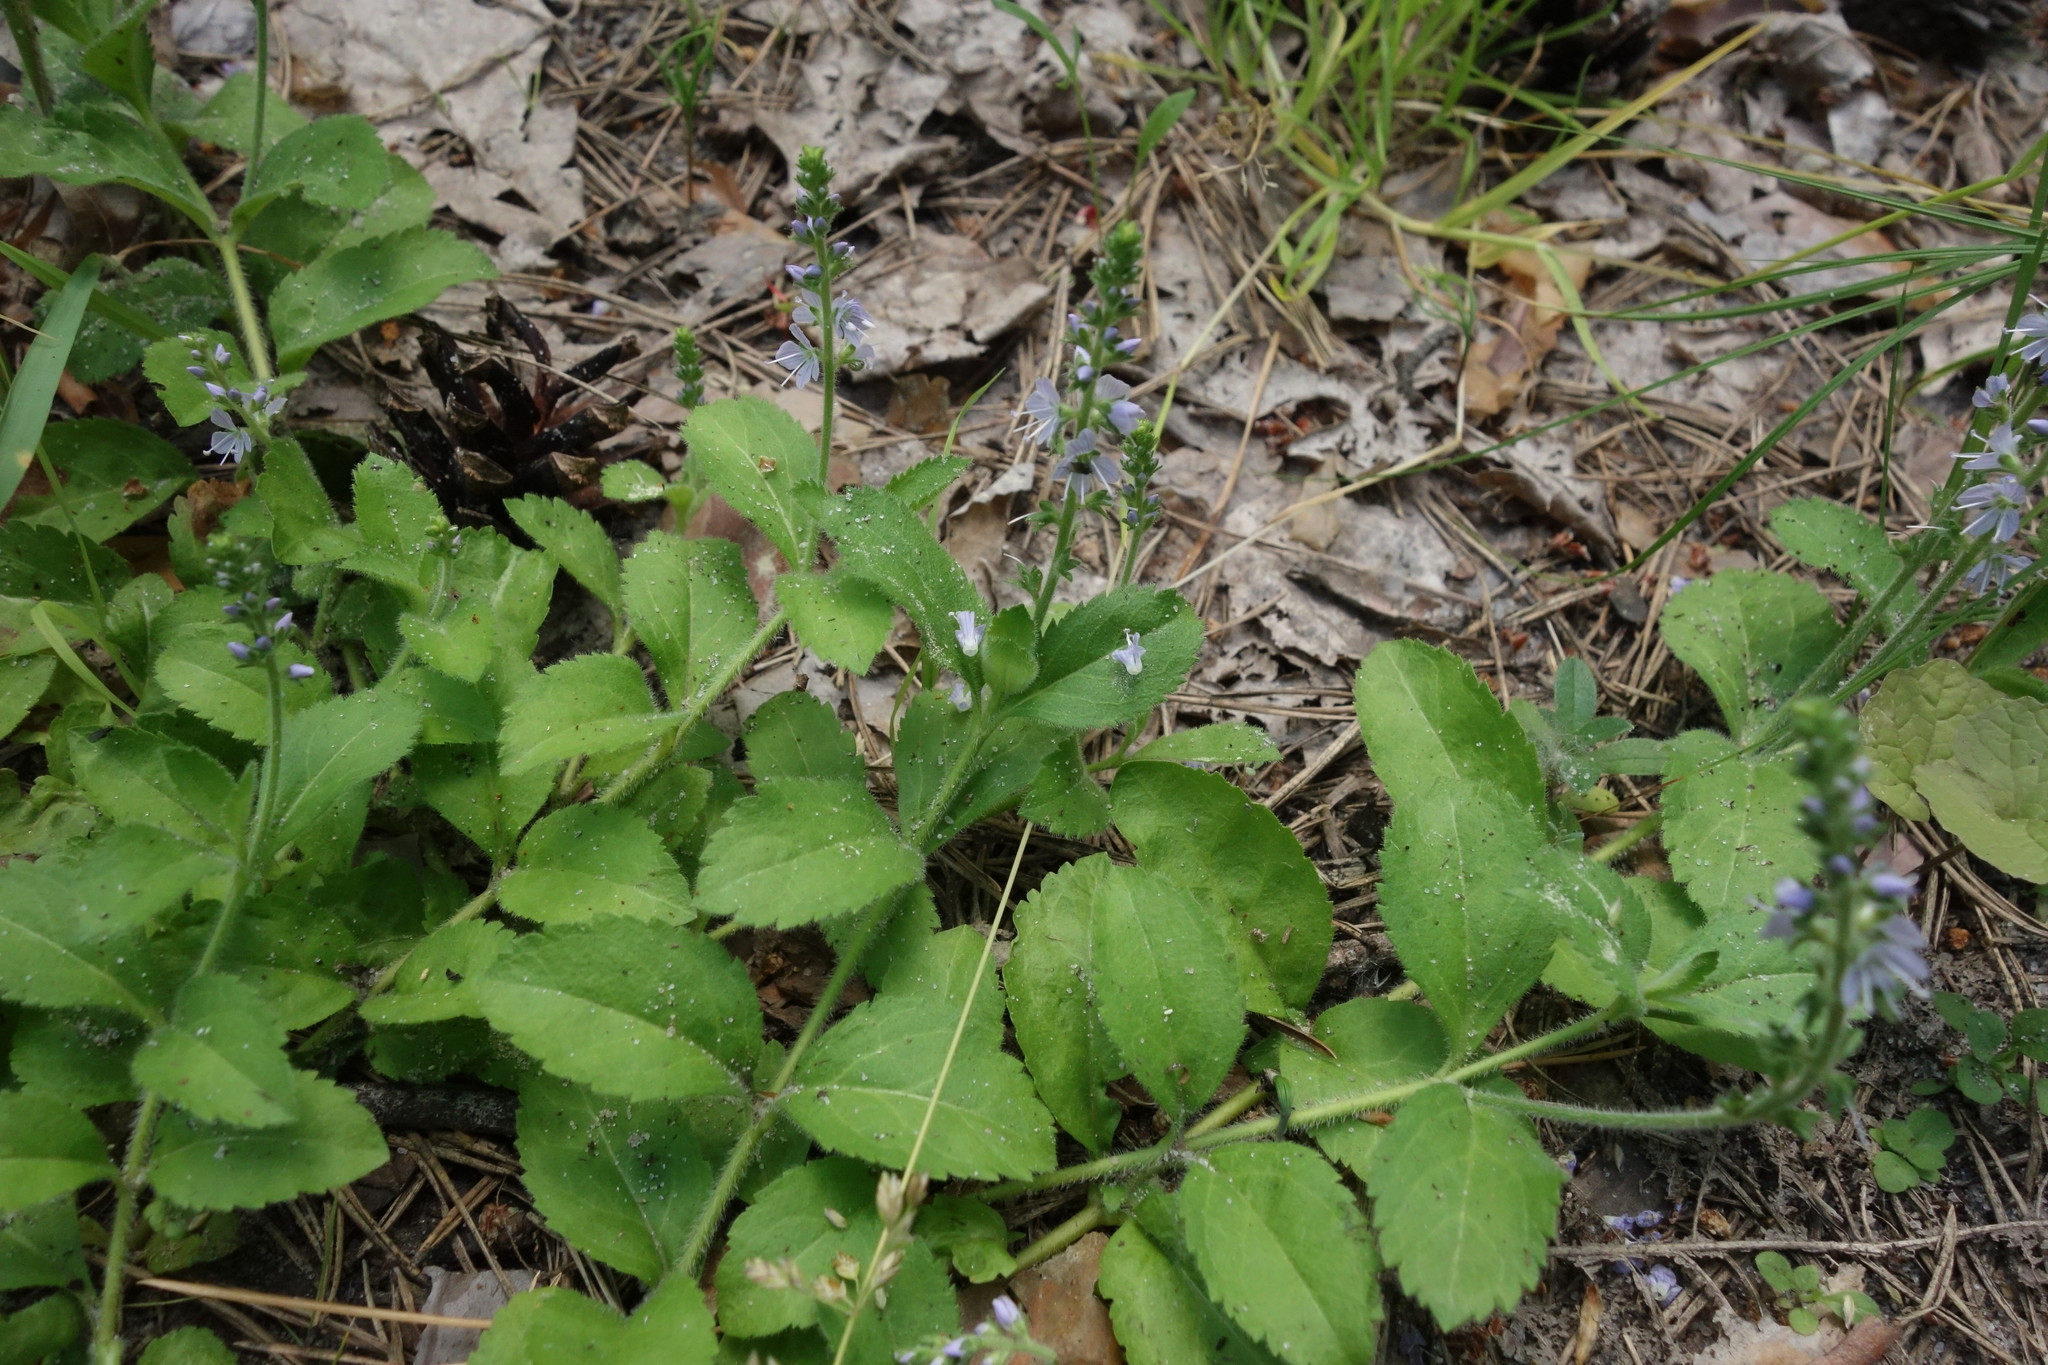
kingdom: Plantae
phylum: Tracheophyta
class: Magnoliopsida
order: Lamiales
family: Plantaginaceae
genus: Veronica
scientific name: Veronica officinalis
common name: Common speedwell
